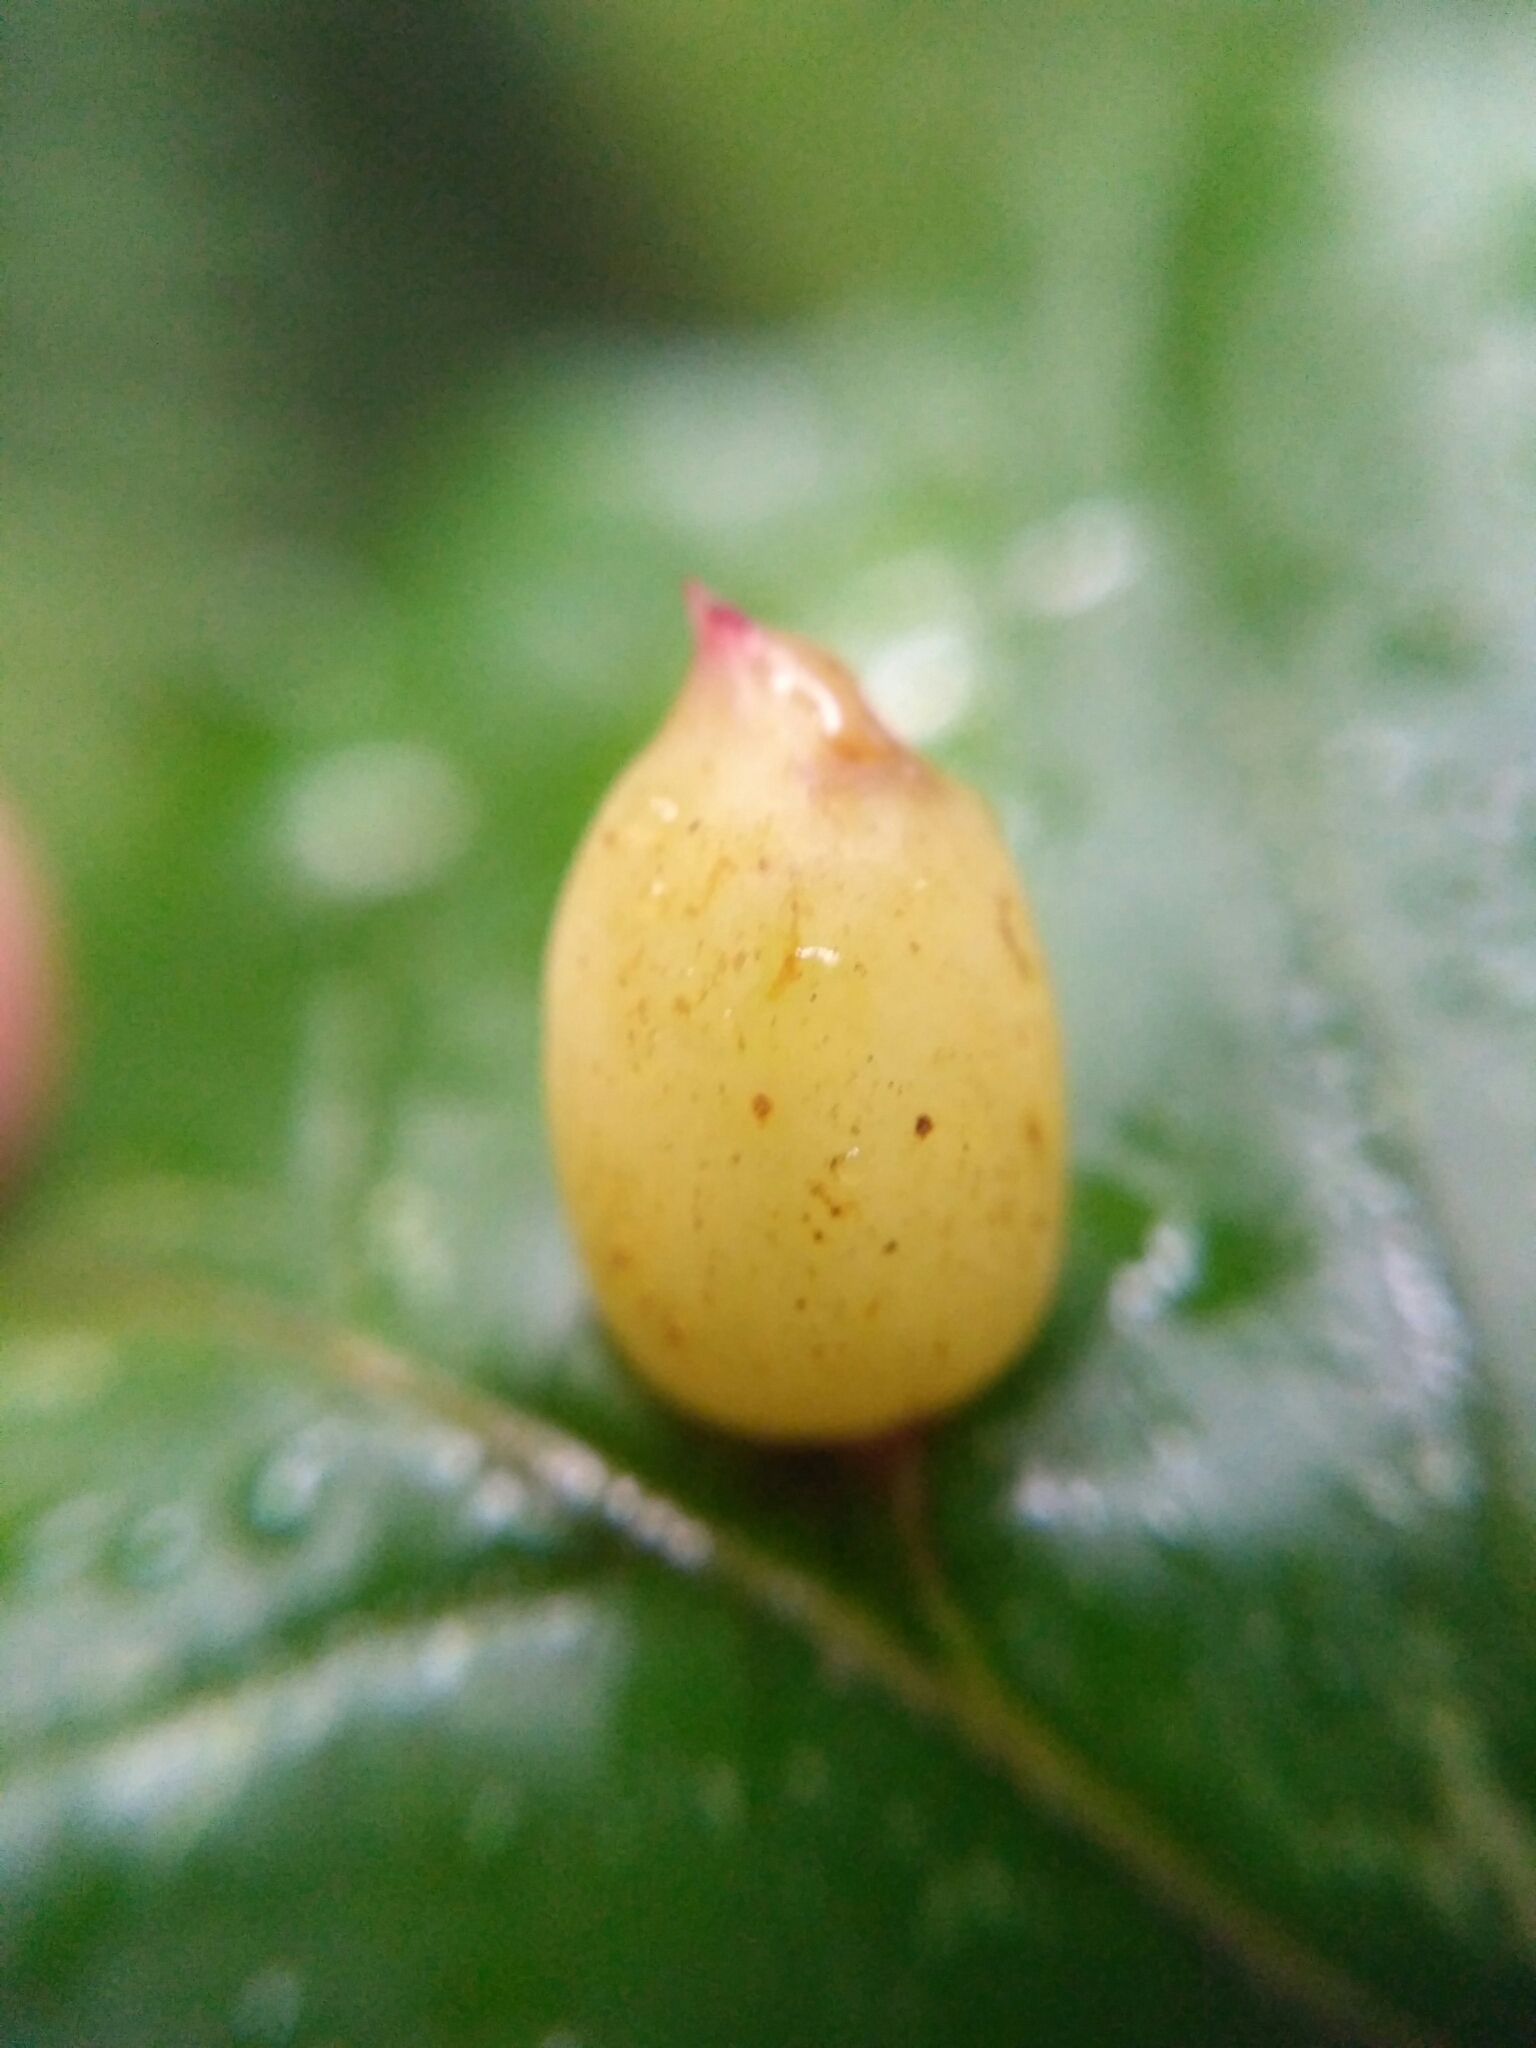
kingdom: Animalia
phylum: Arthropoda
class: Insecta
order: Diptera
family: Cecidomyiidae
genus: Mikiola
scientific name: Mikiola fagi
